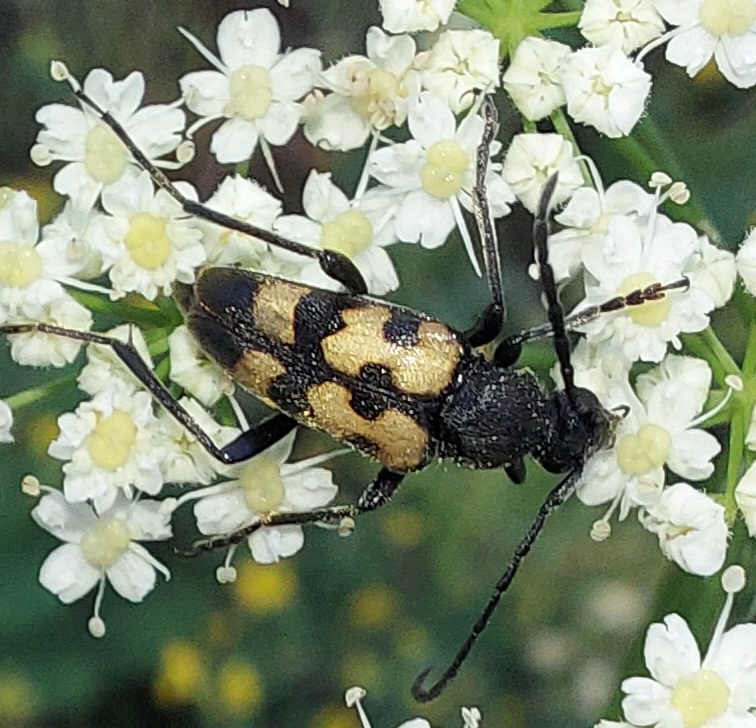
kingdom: Animalia
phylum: Arthropoda
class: Insecta
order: Coleoptera
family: Cerambycidae
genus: Pachytodes
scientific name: Pachytodes
